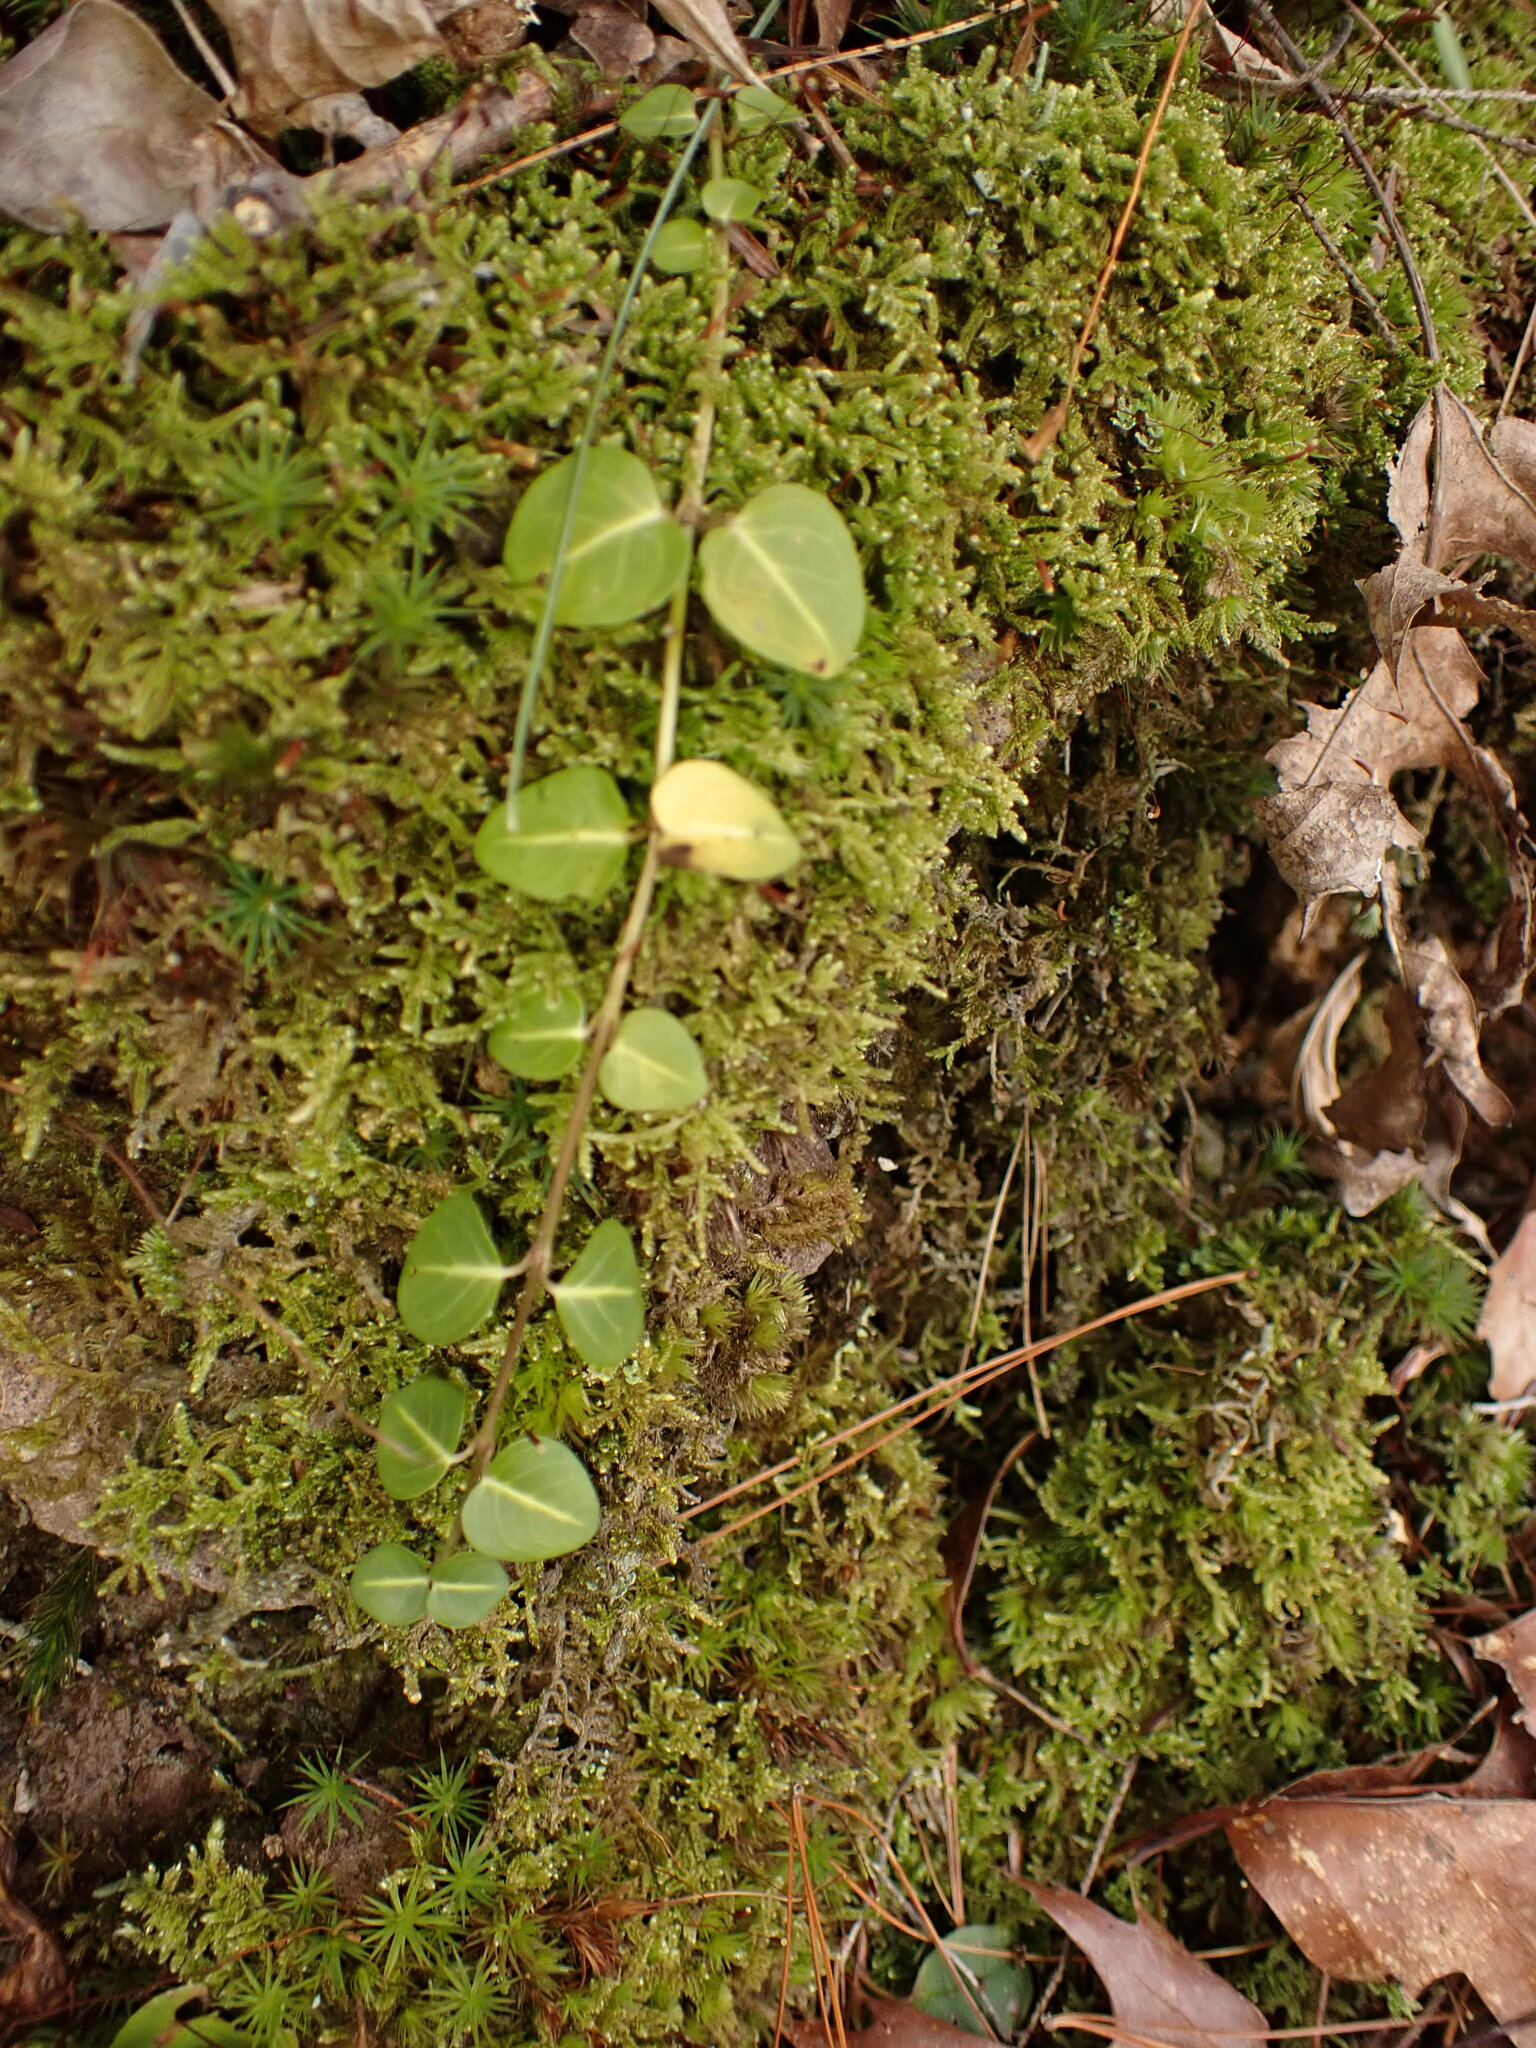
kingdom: Plantae
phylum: Tracheophyta
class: Magnoliopsida
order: Gentianales
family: Rubiaceae
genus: Mitchella
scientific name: Mitchella repens
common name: Partridge-berry
